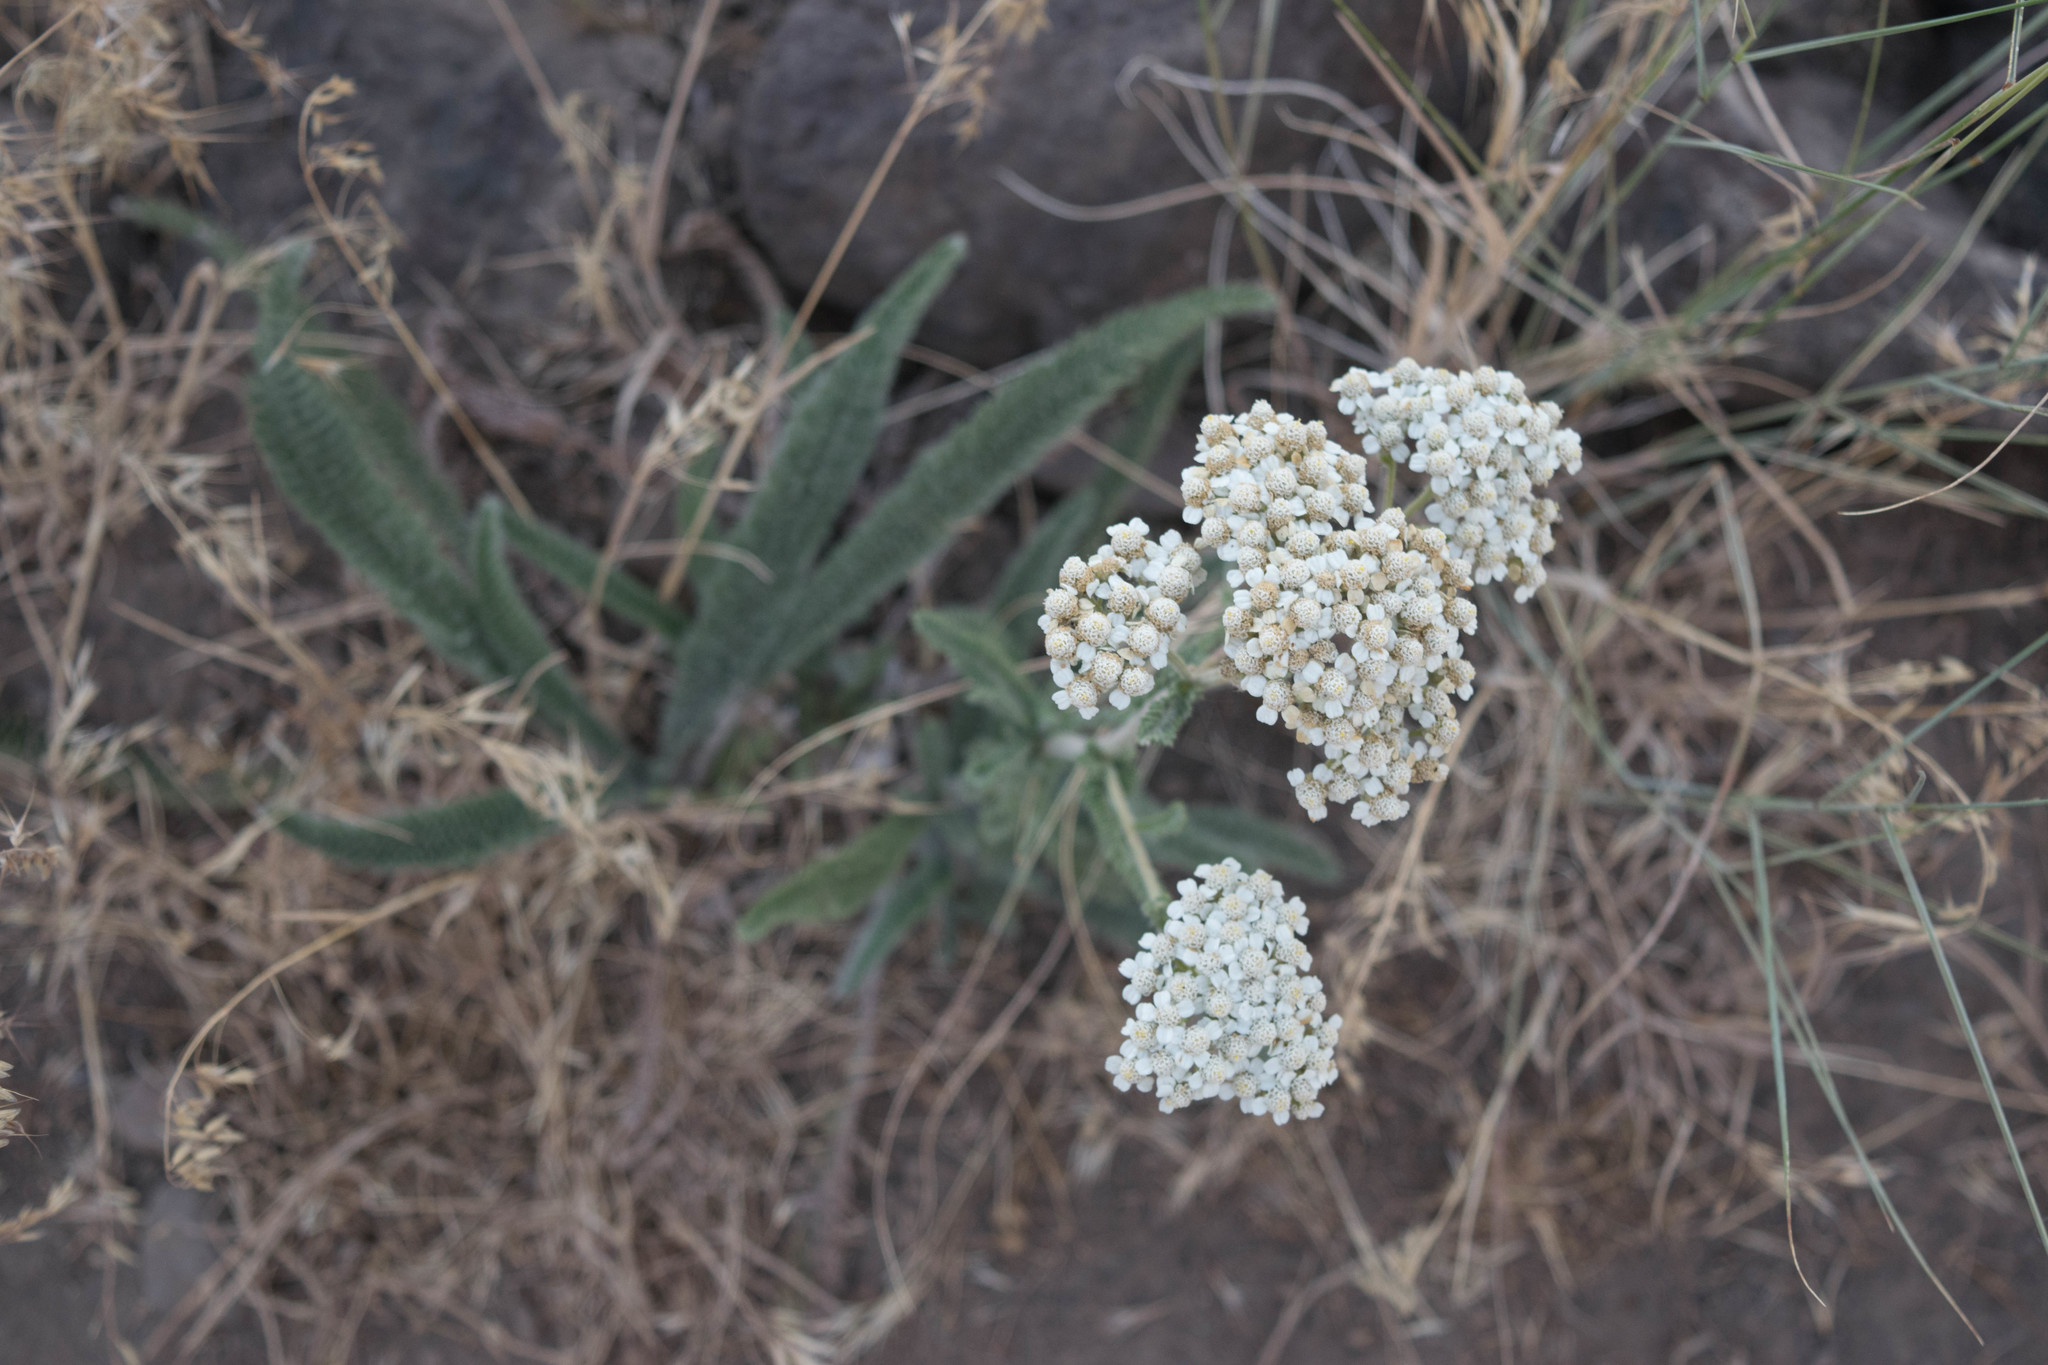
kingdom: Plantae
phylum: Tracheophyta
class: Magnoliopsida
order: Asterales
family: Asteraceae
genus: Achillea
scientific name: Achillea millefolium
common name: Yarrow
